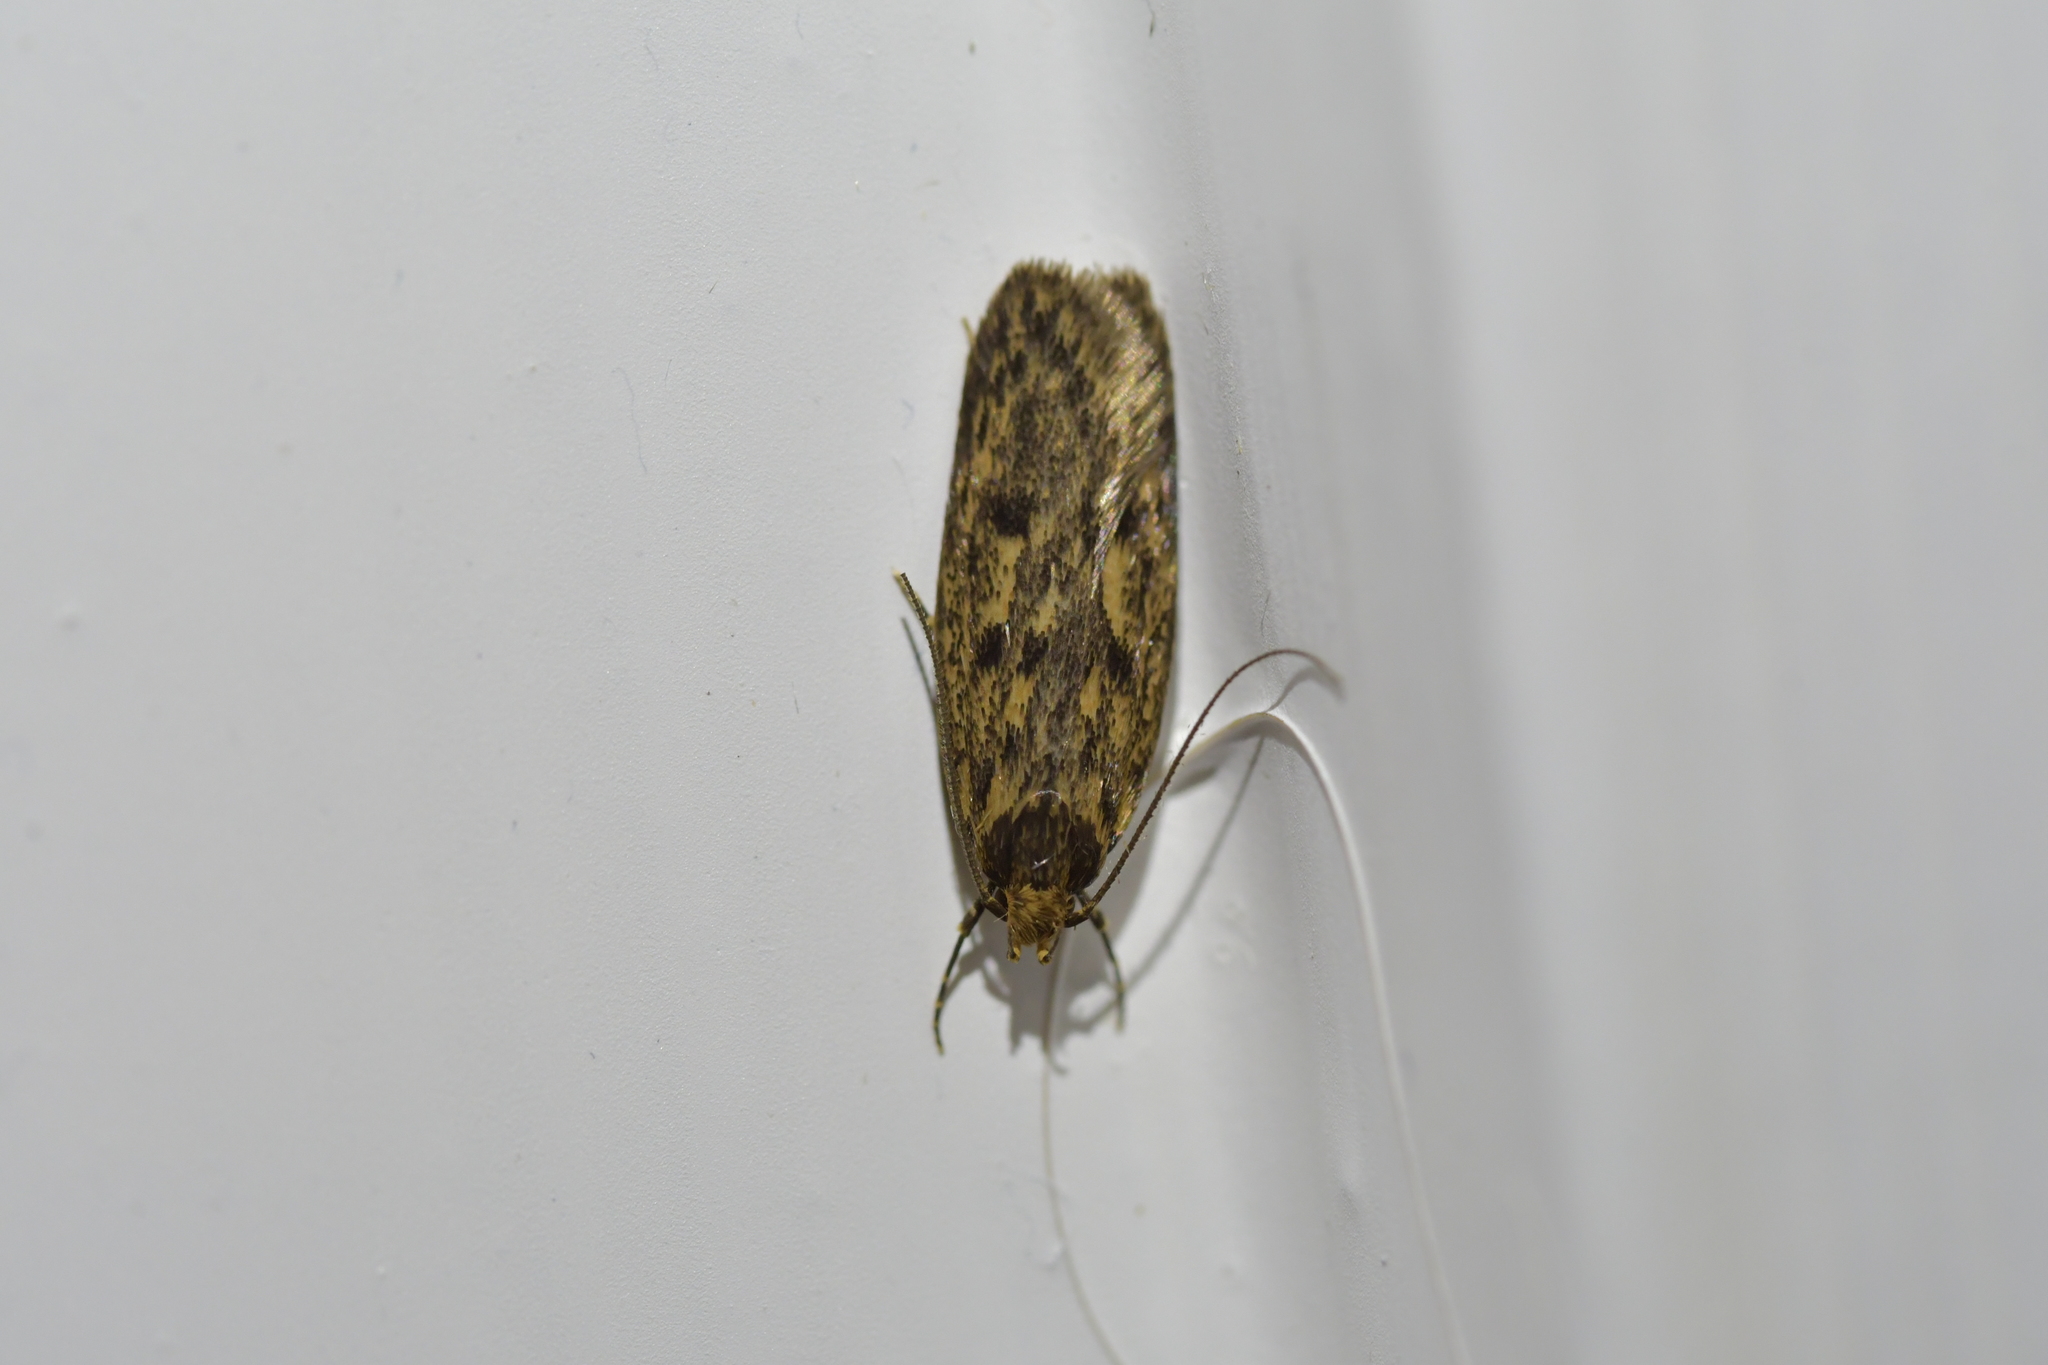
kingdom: Animalia
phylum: Arthropoda
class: Insecta
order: Lepidoptera
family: Oecophoridae
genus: Hofmannophila
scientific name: Hofmannophila pseudospretella
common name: Brown house moth
